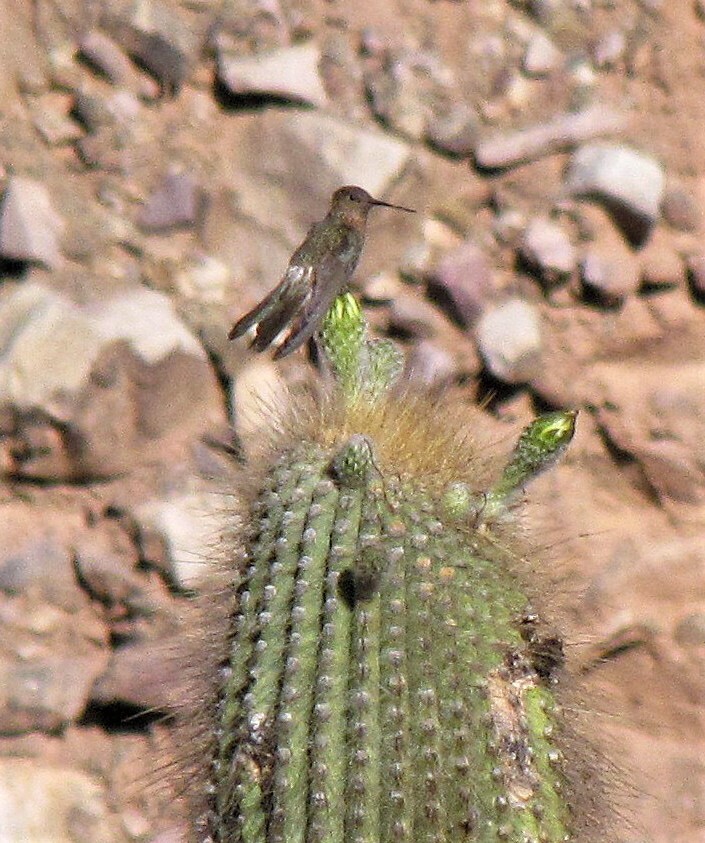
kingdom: Animalia
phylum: Chordata
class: Aves
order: Apodiformes
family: Trochilidae
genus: Patagona
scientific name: Patagona gigas
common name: Giant hummingbird
